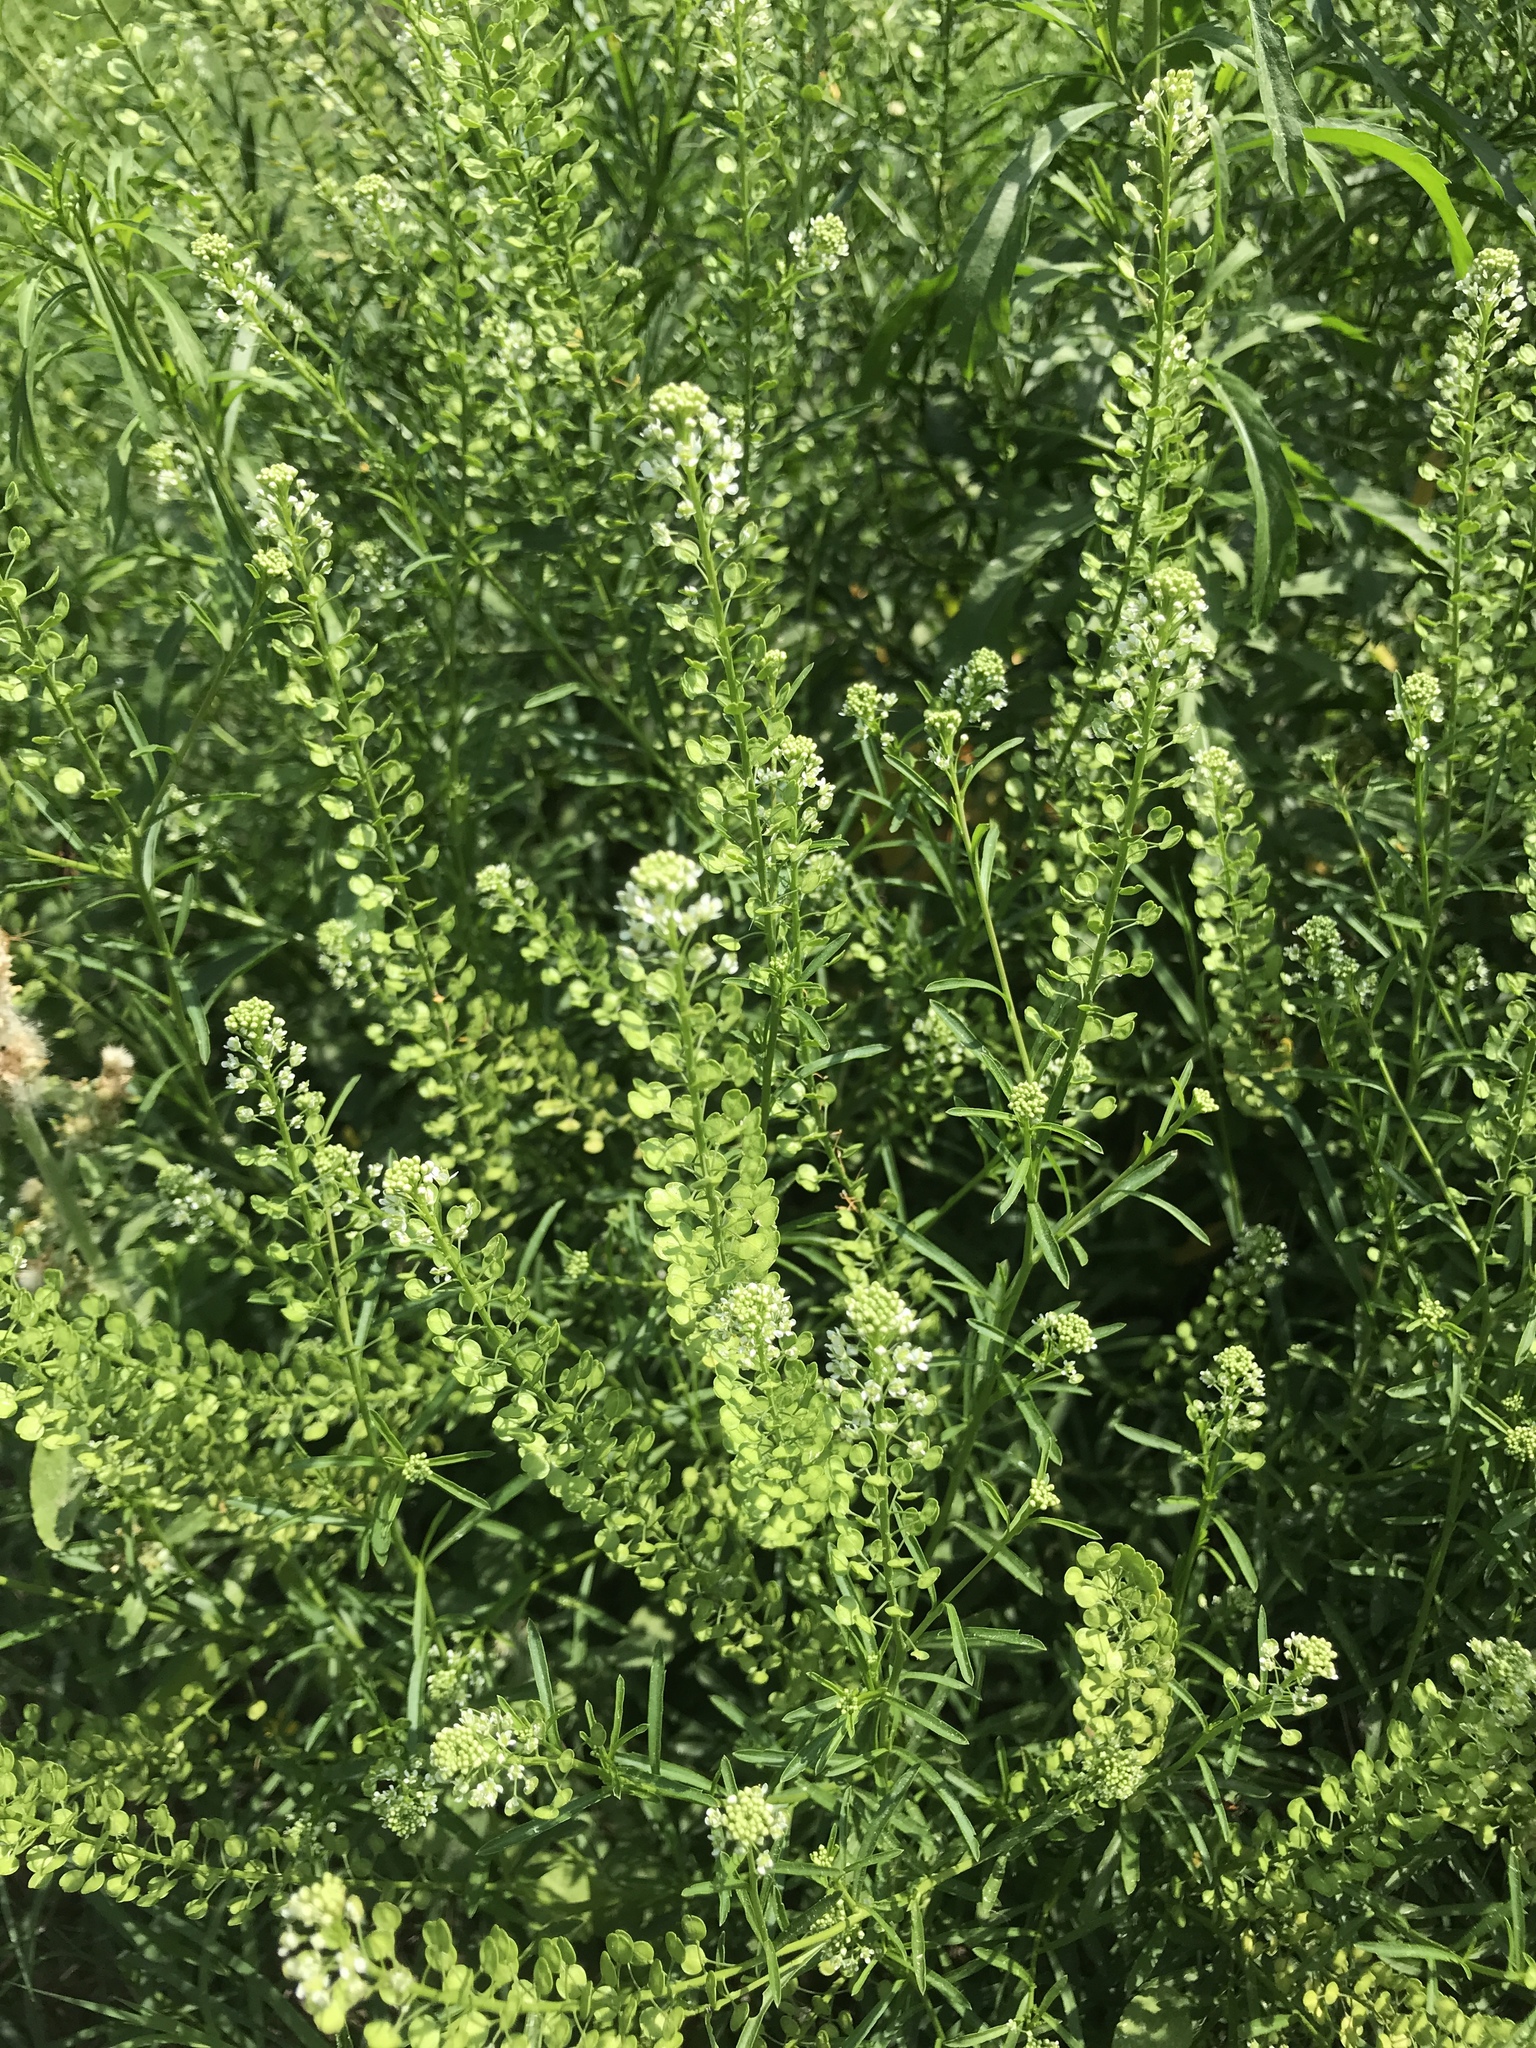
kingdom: Plantae
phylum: Tracheophyta
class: Magnoliopsida
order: Brassicales
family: Brassicaceae
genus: Lepidium
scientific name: Lepidium virginicum
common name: Least pepperwort
